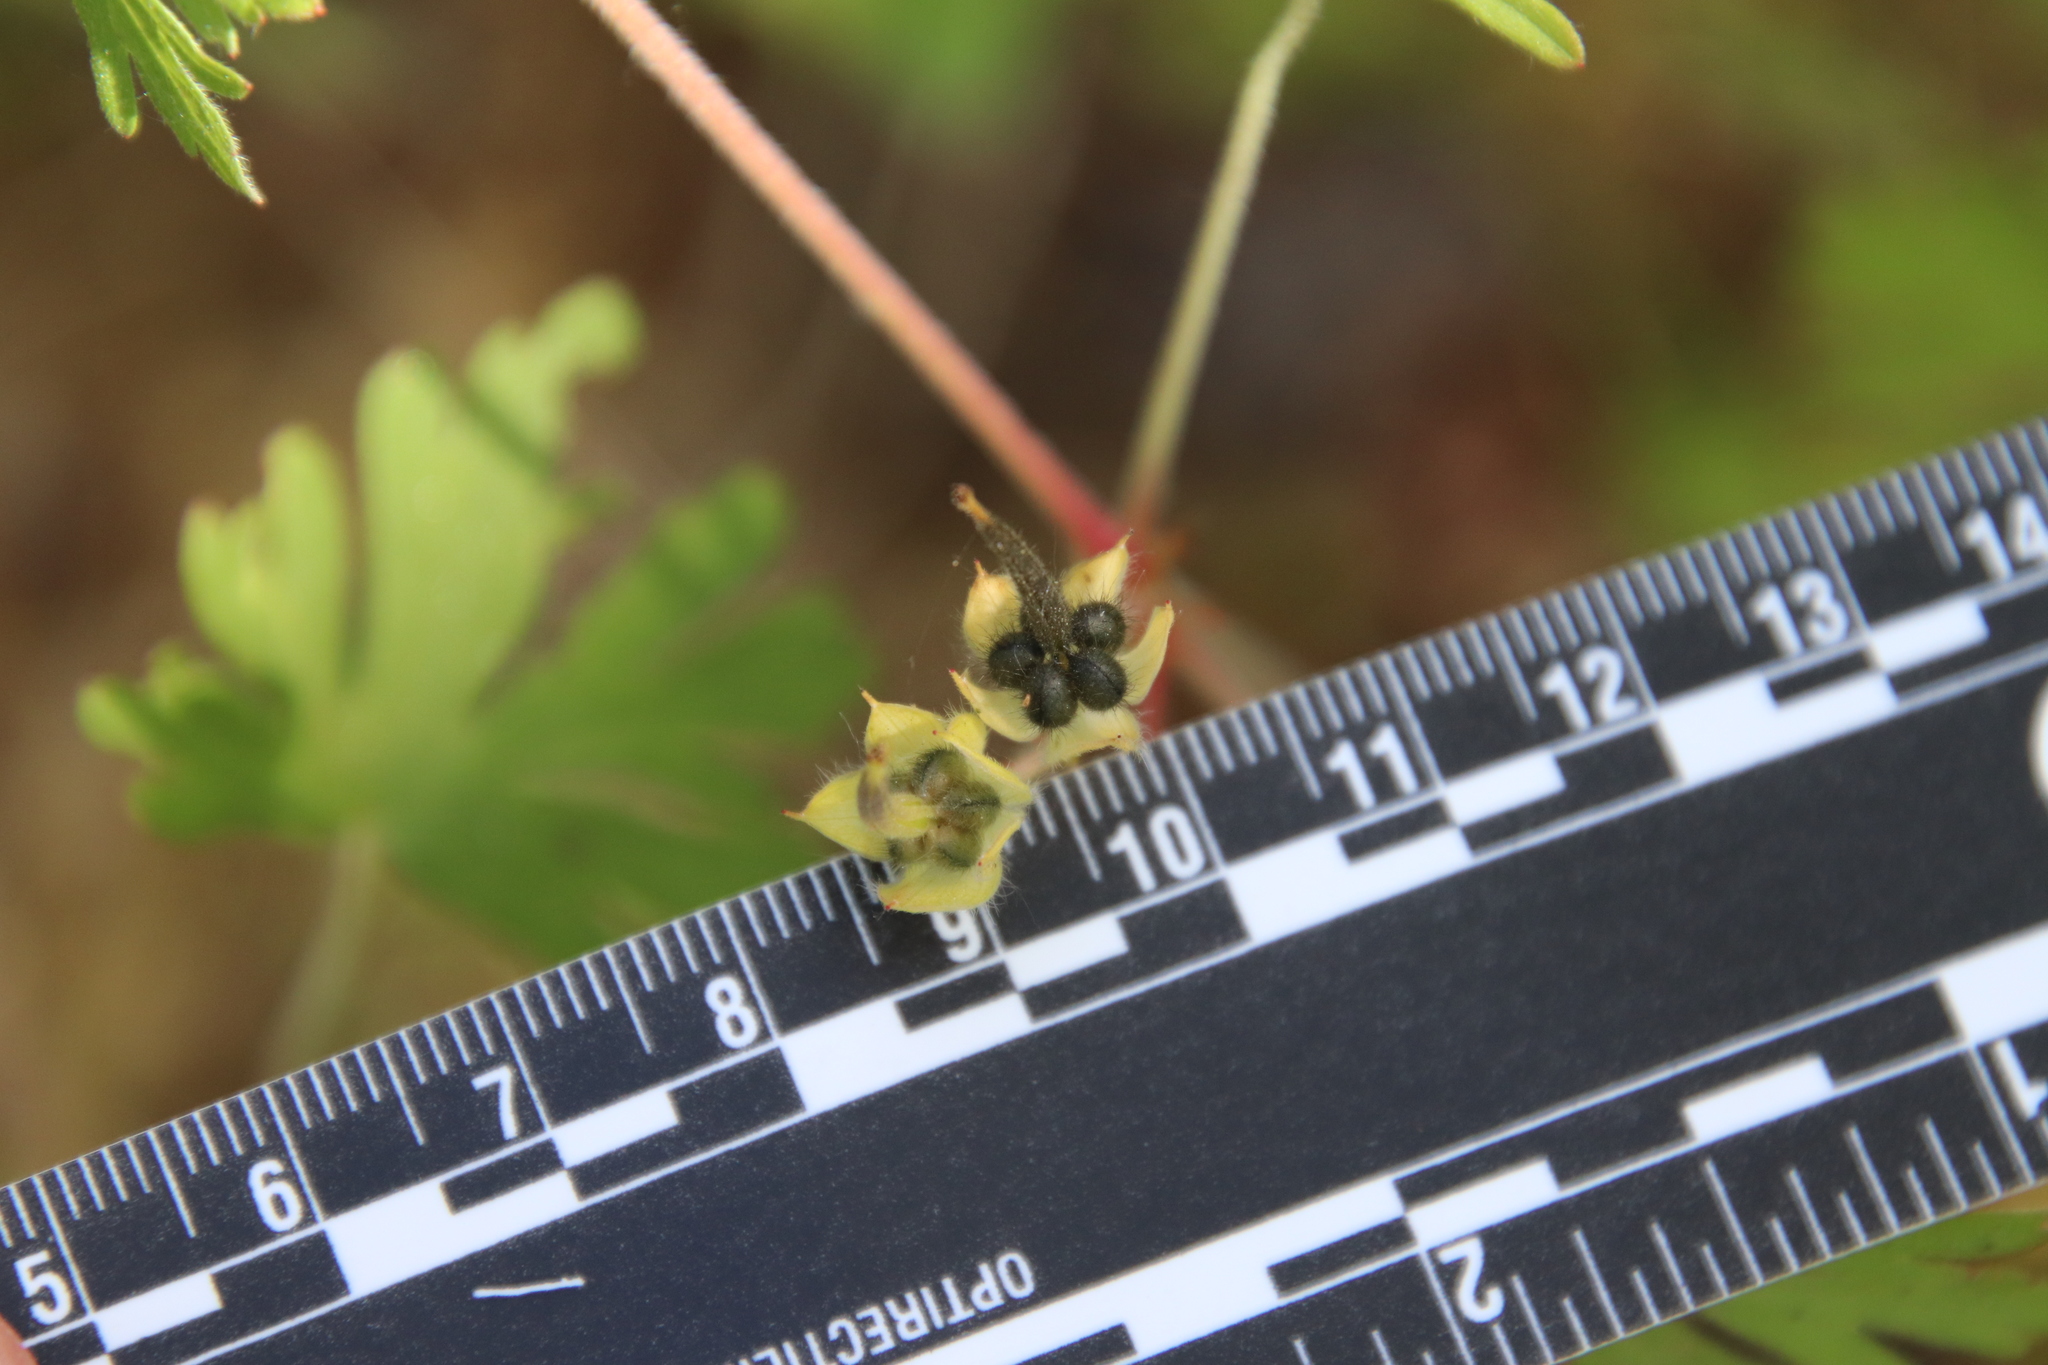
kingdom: Plantae
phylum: Tracheophyta
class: Magnoliopsida
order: Geraniales
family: Geraniaceae
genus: Geranium
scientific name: Geranium carolinianum
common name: Carolina crane's-bill
